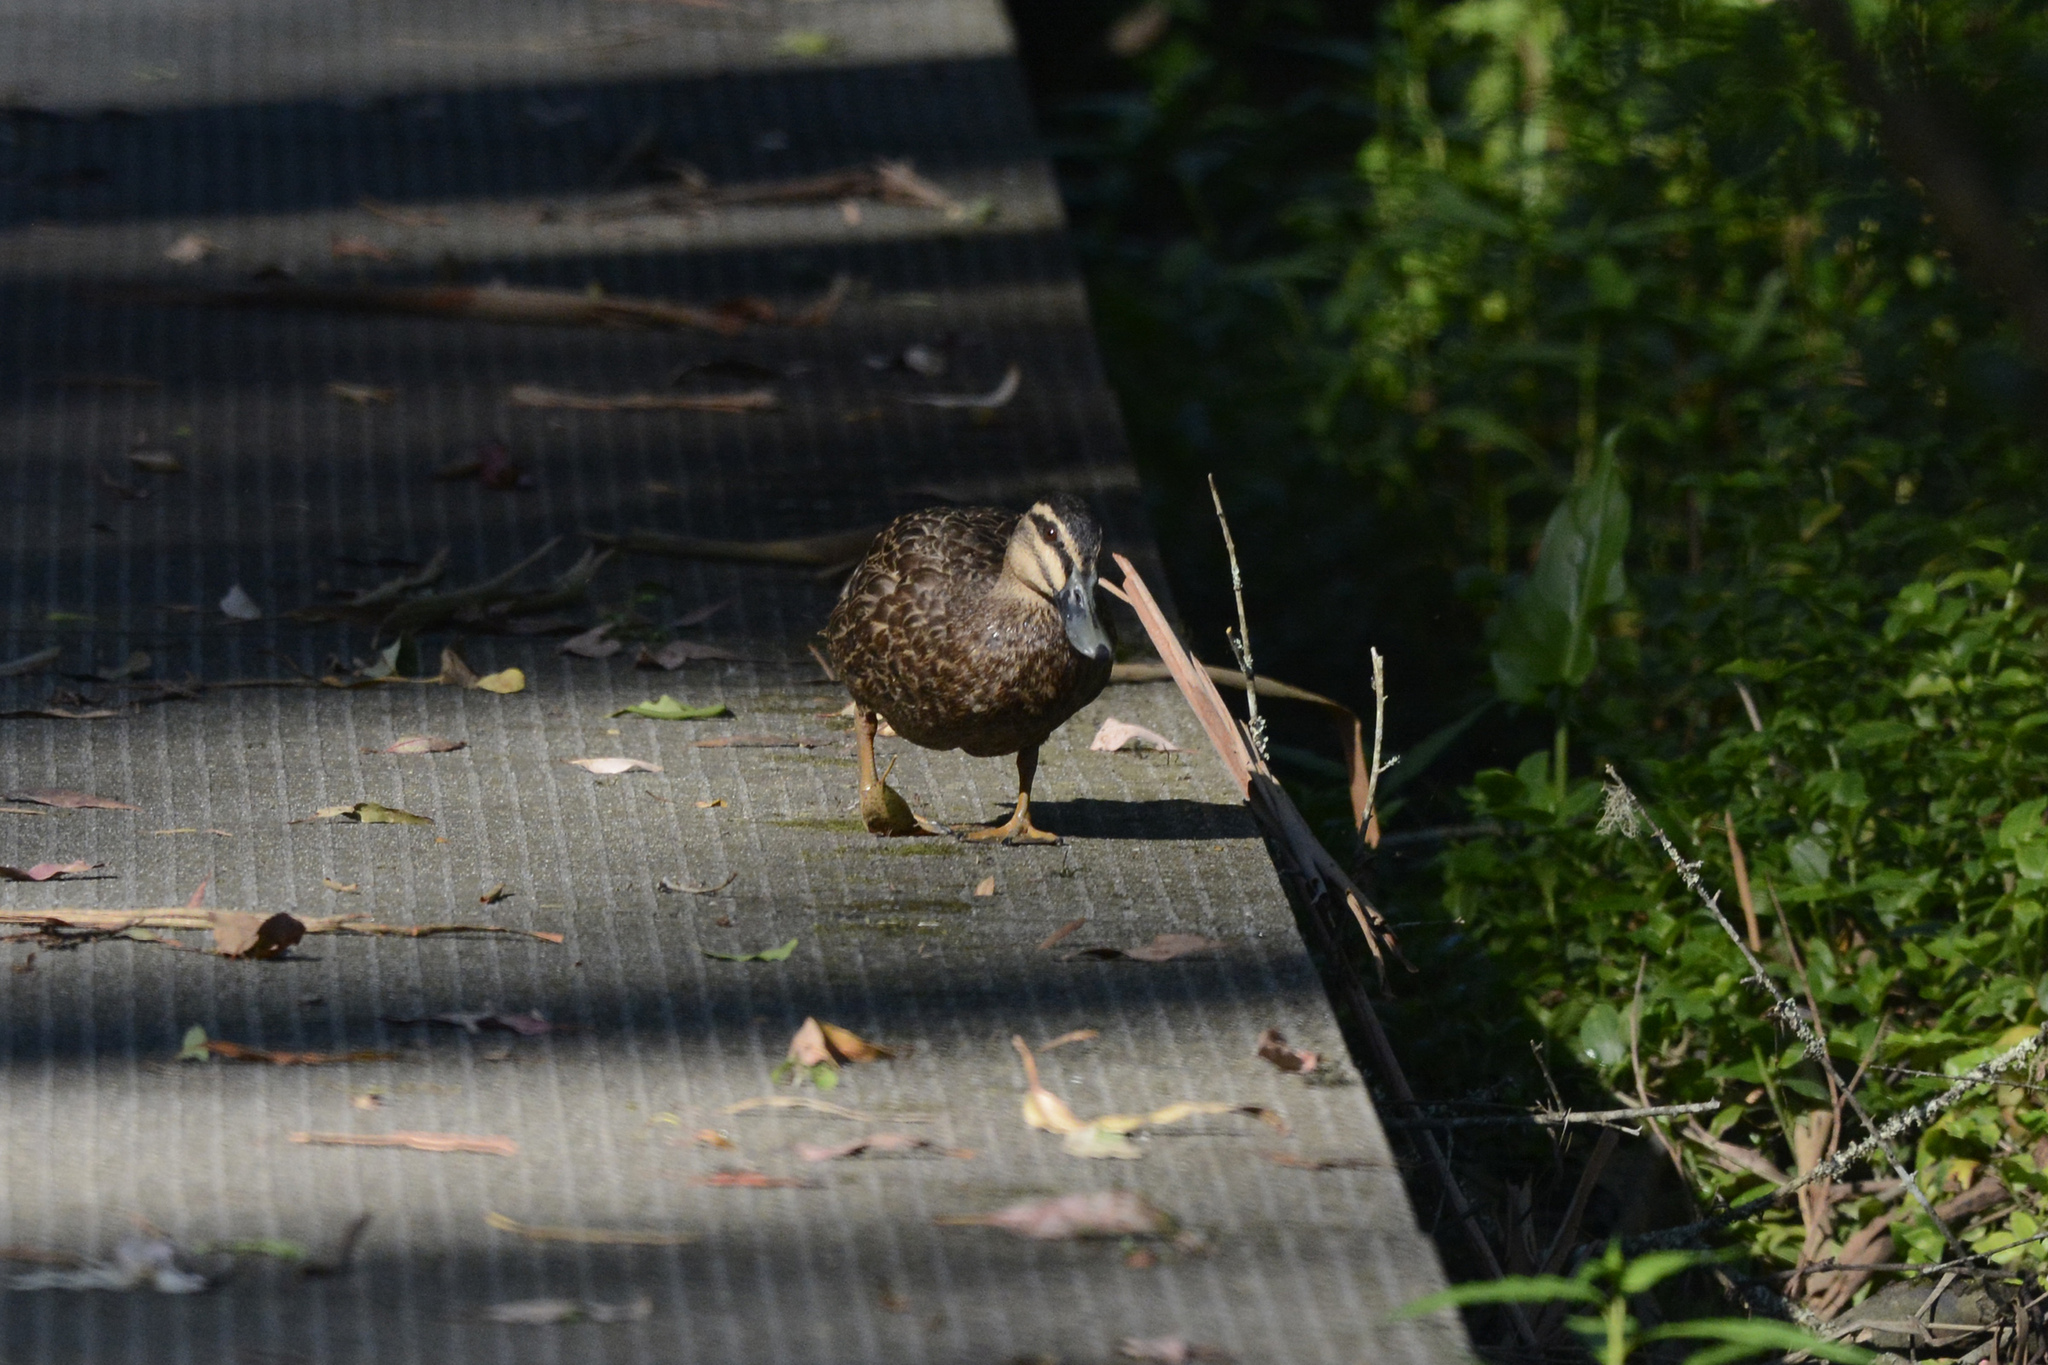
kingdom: Animalia
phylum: Chordata
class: Aves
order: Anseriformes
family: Anatidae
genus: Anas
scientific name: Anas superciliosa
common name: Pacific black duck
